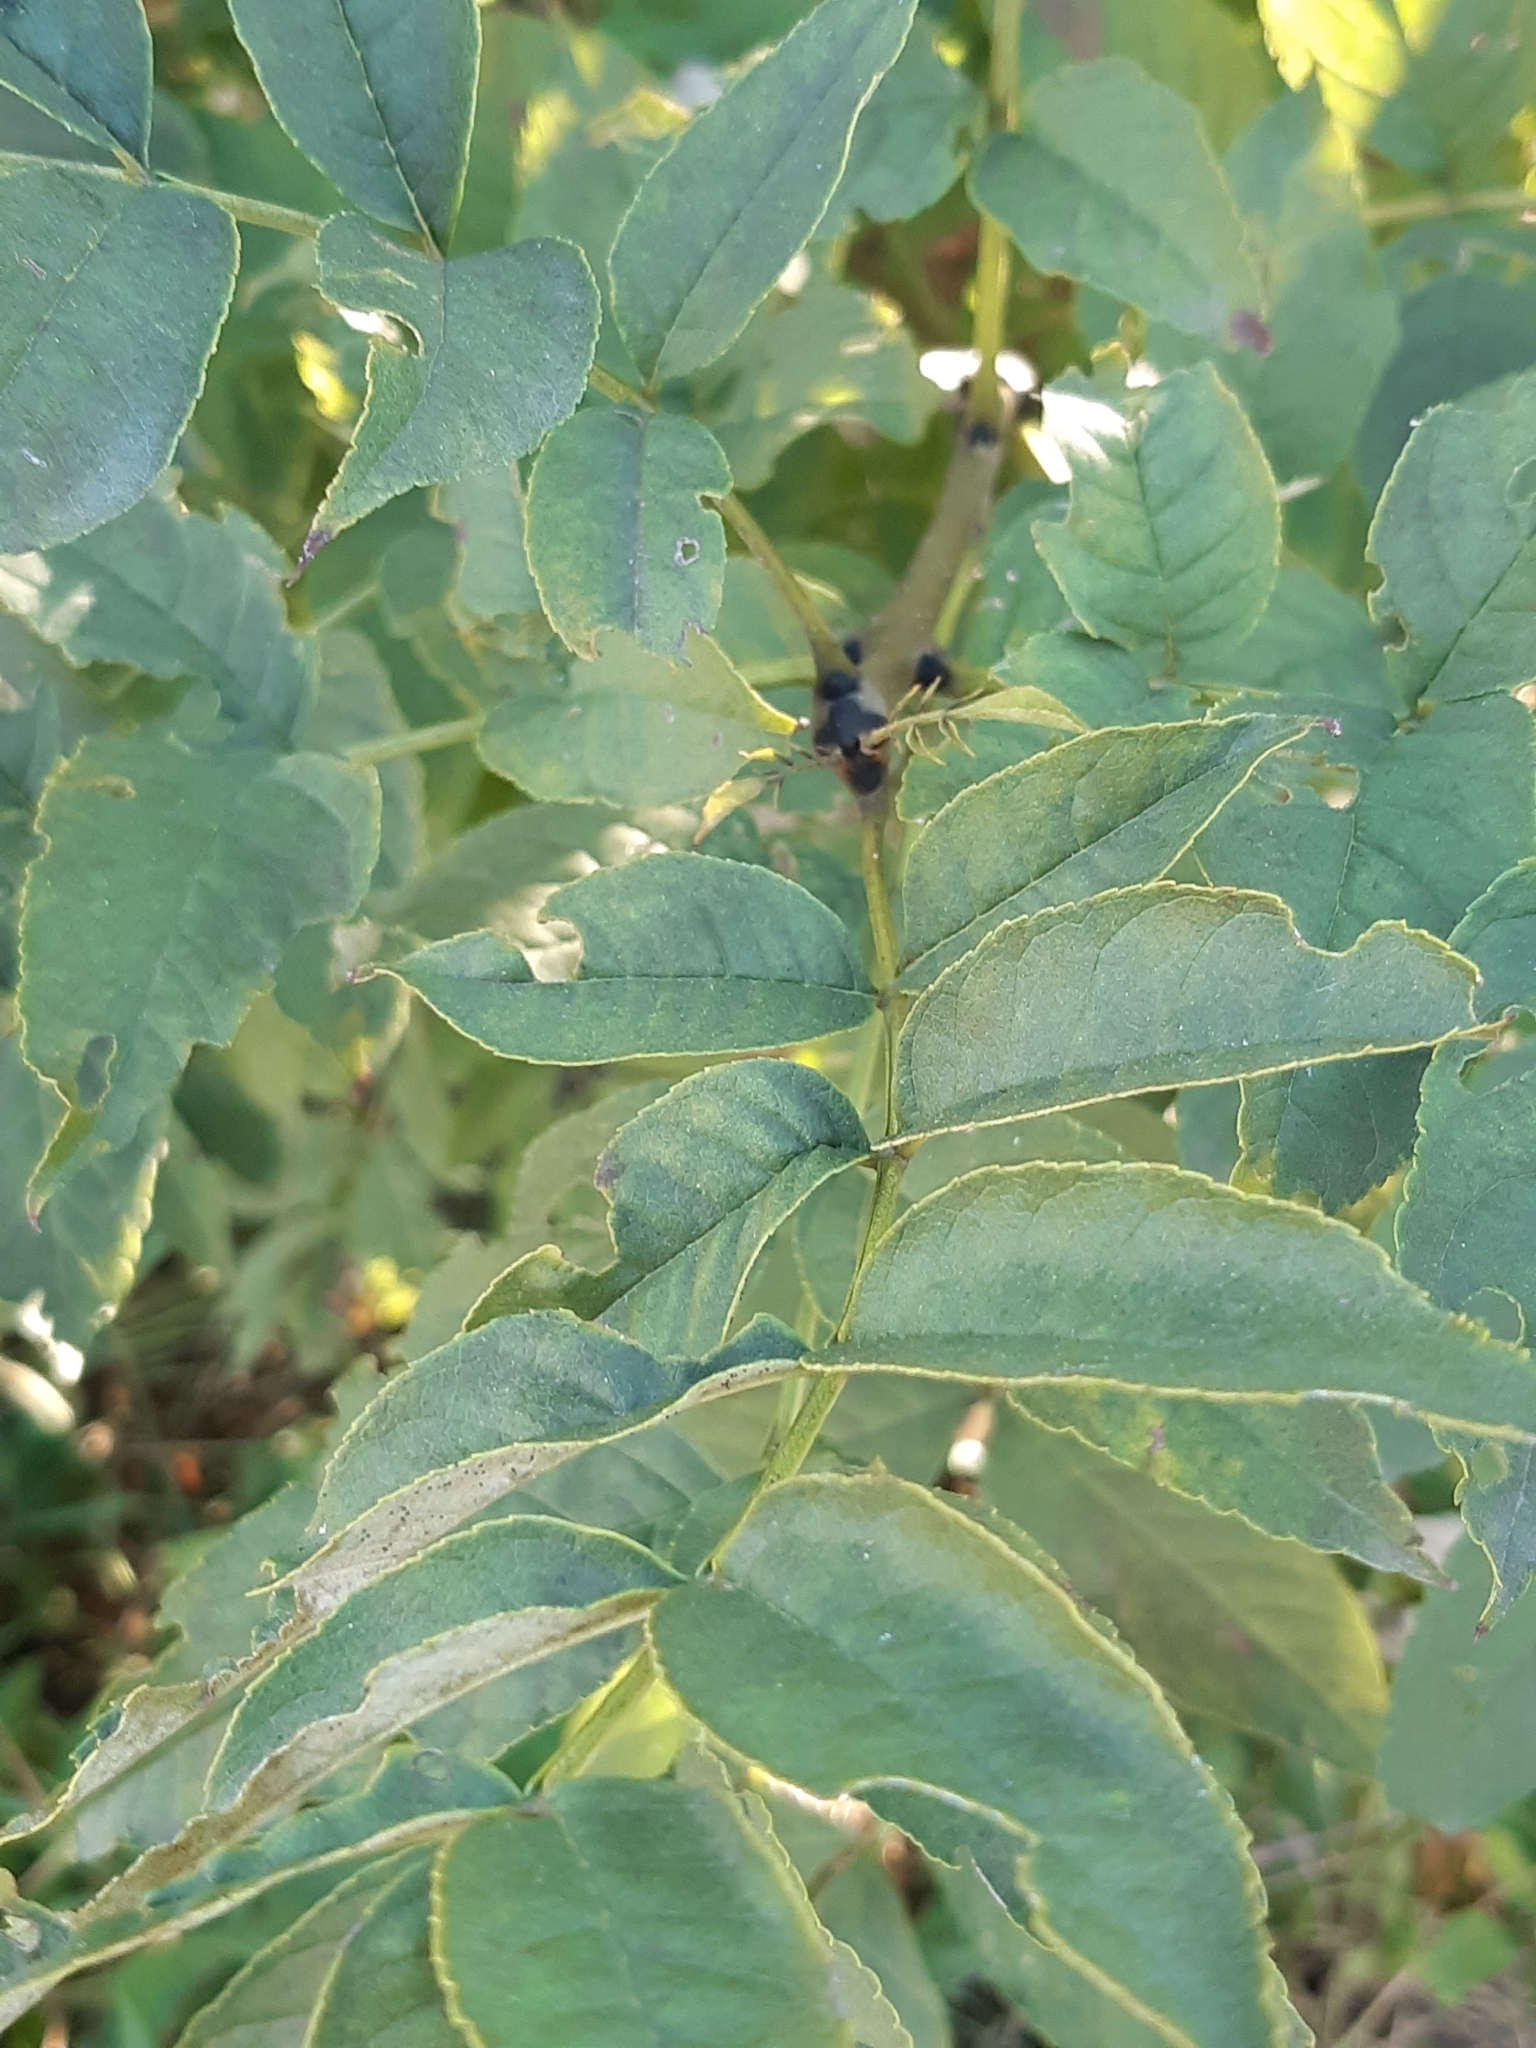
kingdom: Plantae
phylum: Tracheophyta
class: Magnoliopsida
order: Lamiales
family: Oleaceae
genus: Fraxinus
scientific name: Fraxinus excelsior
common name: European ash
